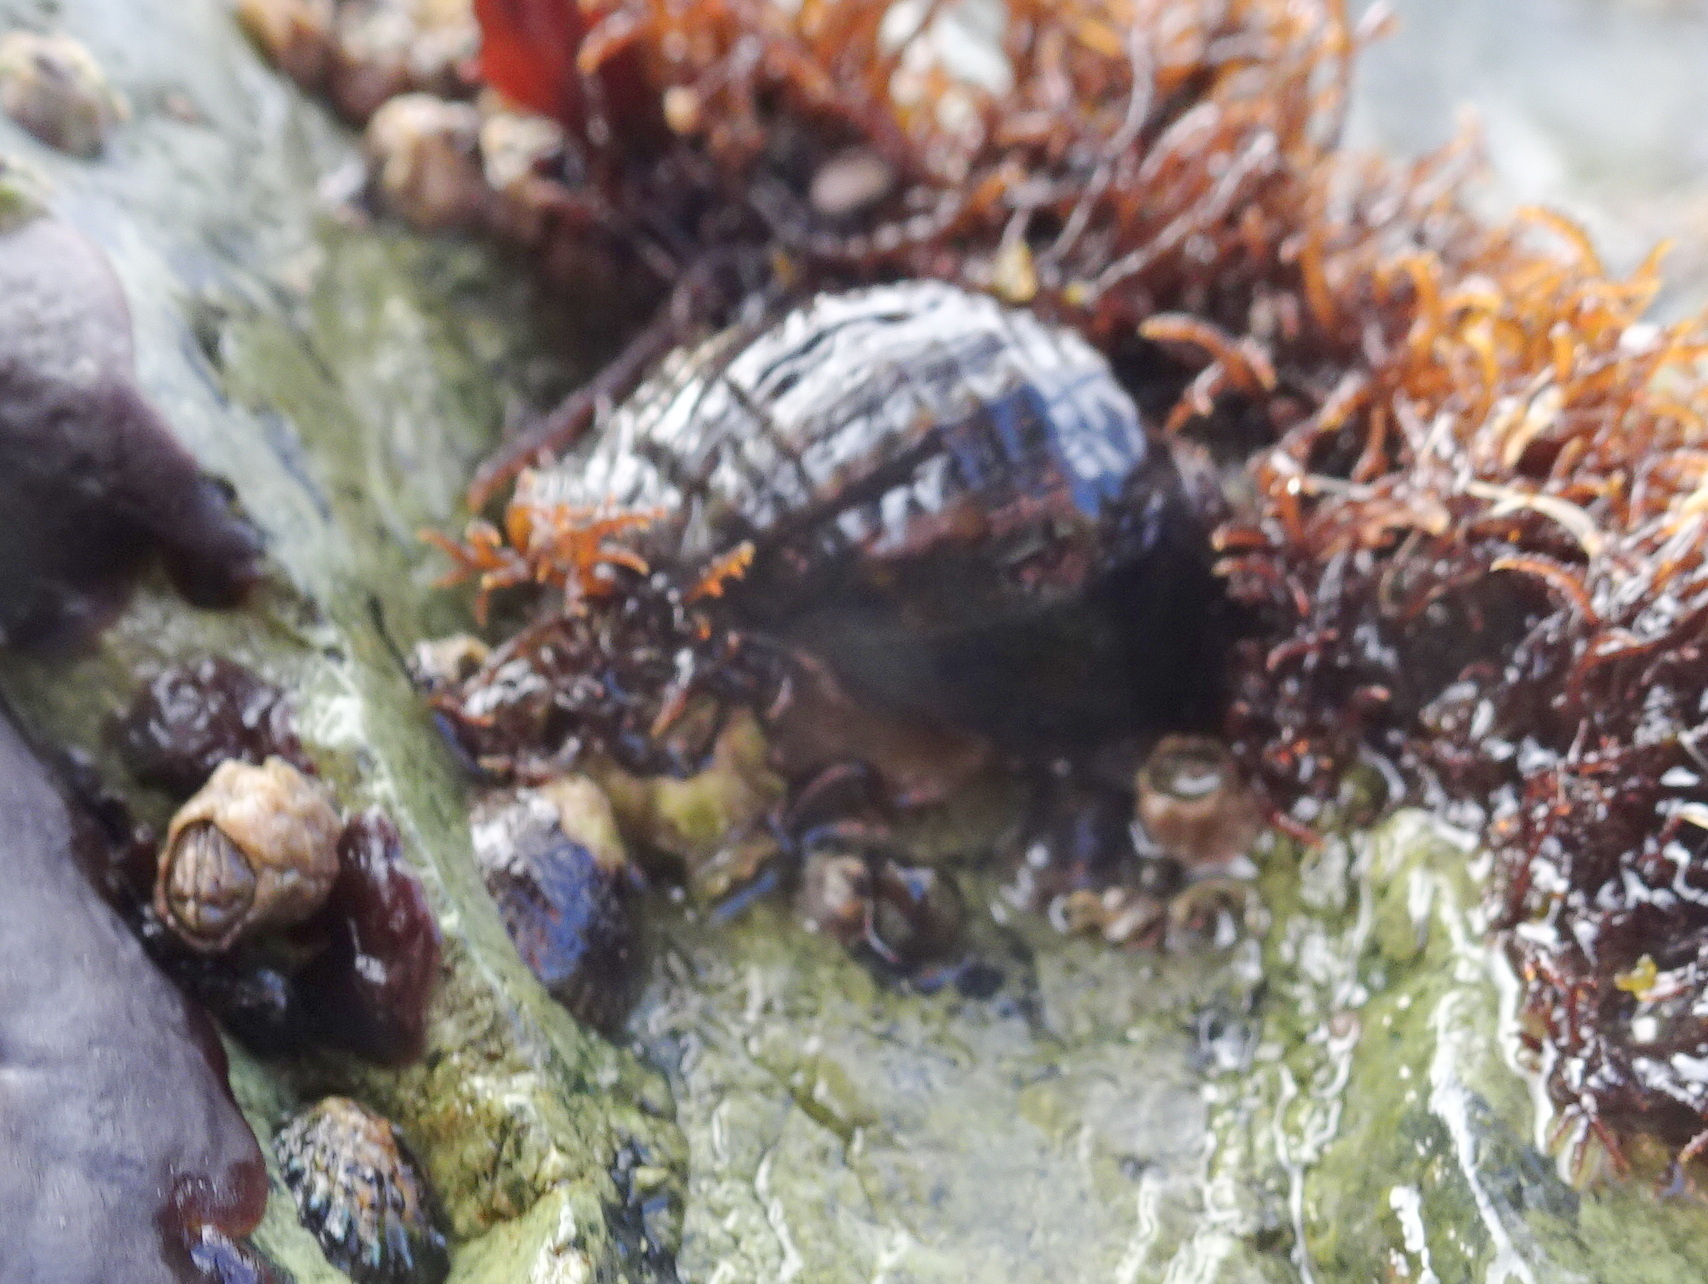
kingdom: Animalia
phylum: Mollusca
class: Gastropoda
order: Neogastropoda
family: Muricidae
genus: Nucella
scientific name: Nucella ostrina
